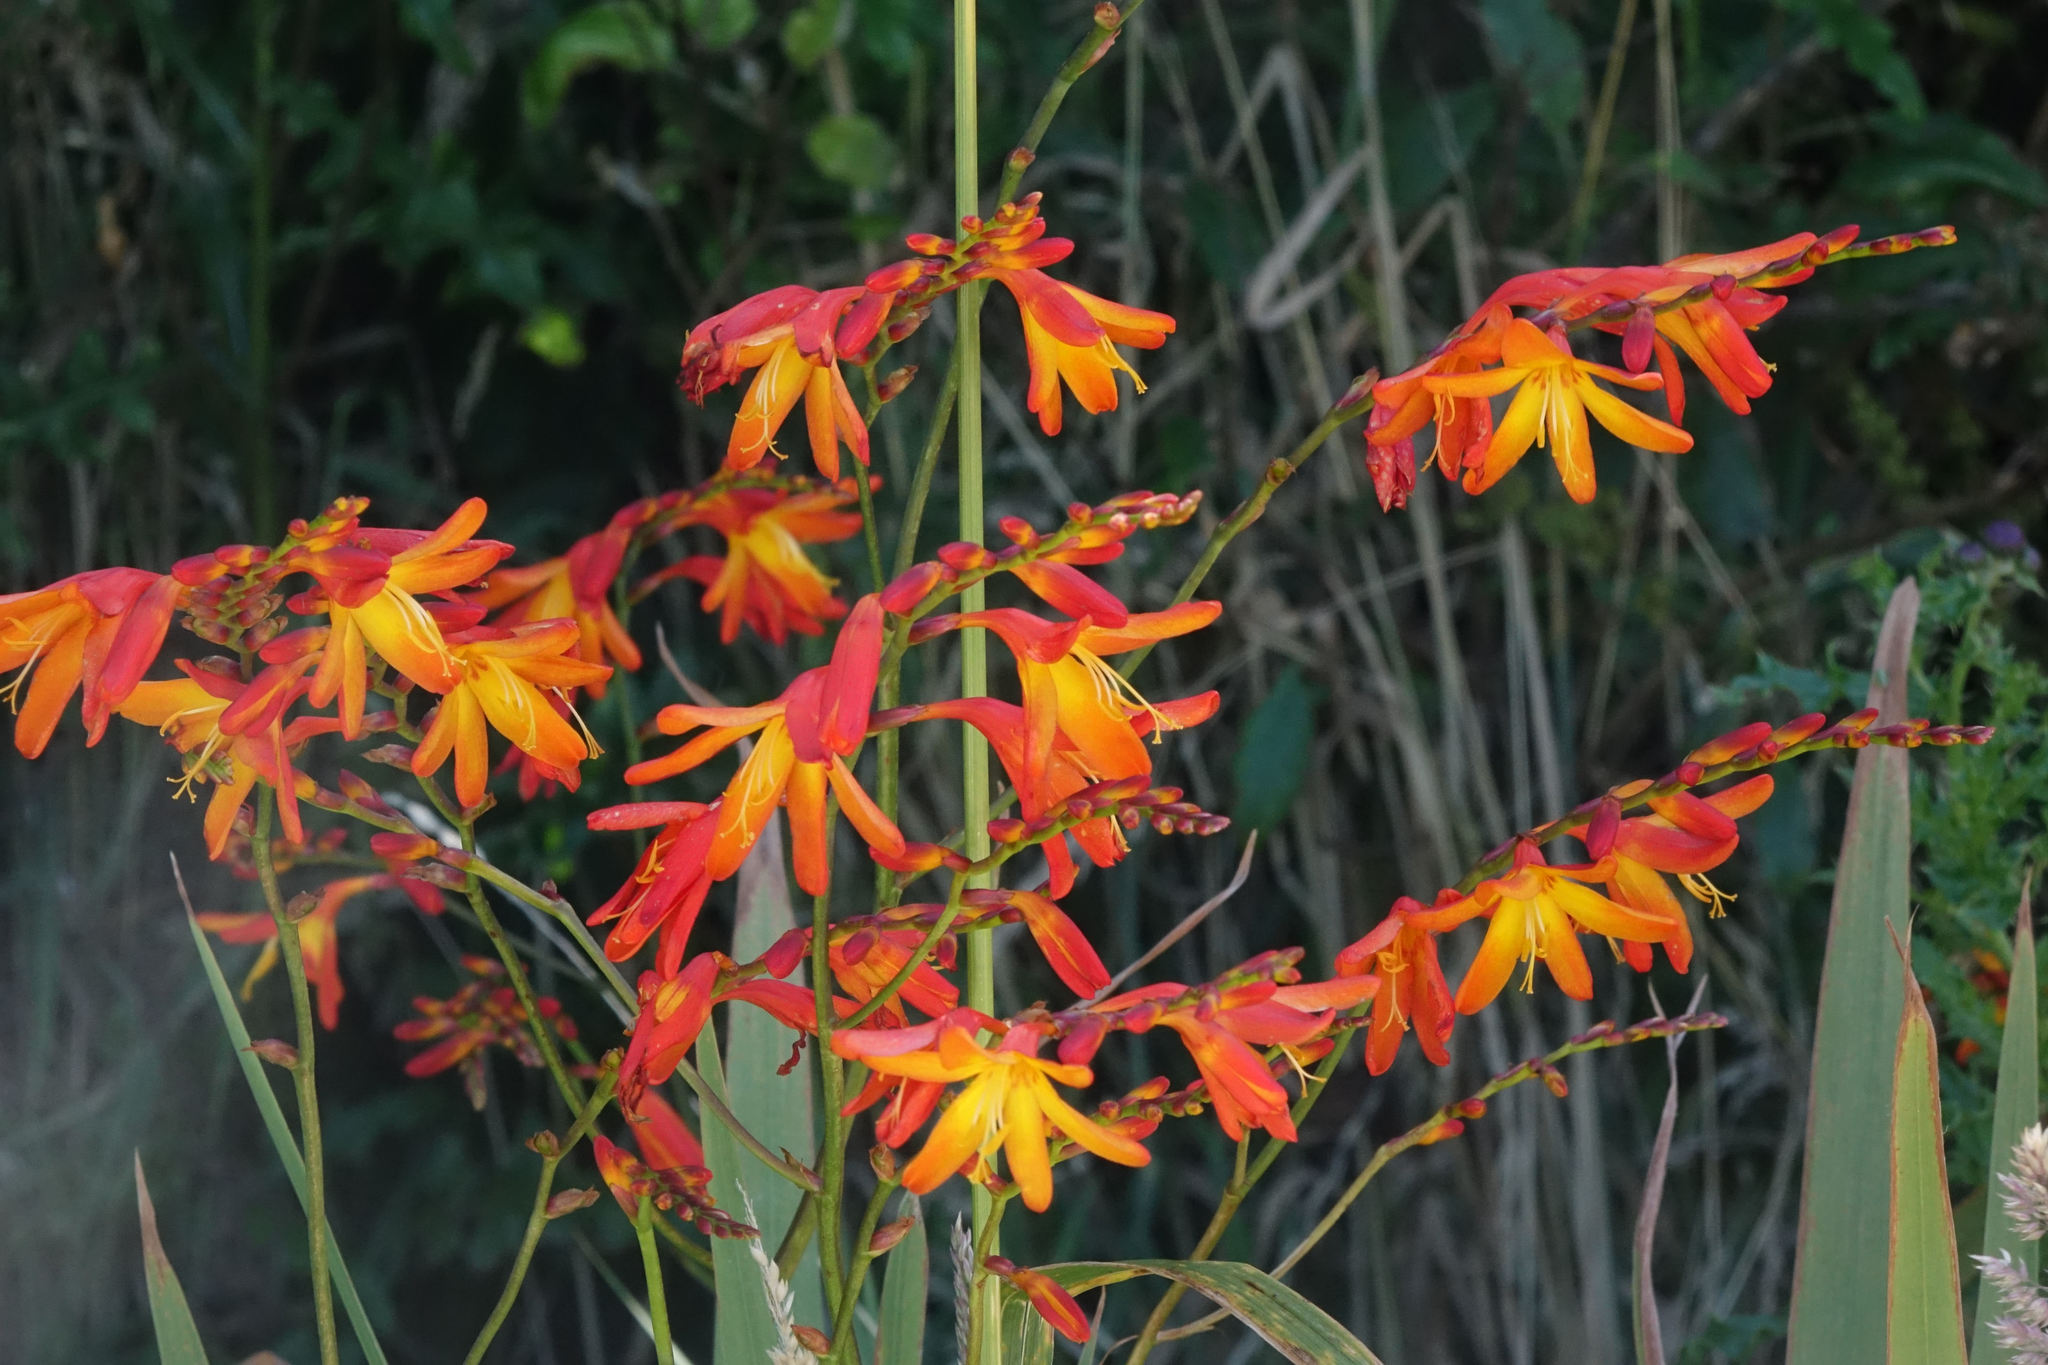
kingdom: Plantae
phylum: Tracheophyta
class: Liliopsida
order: Asparagales
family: Iridaceae
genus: Crocosmia
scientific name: Crocosmia crocosmiiflora
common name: Montbretia
